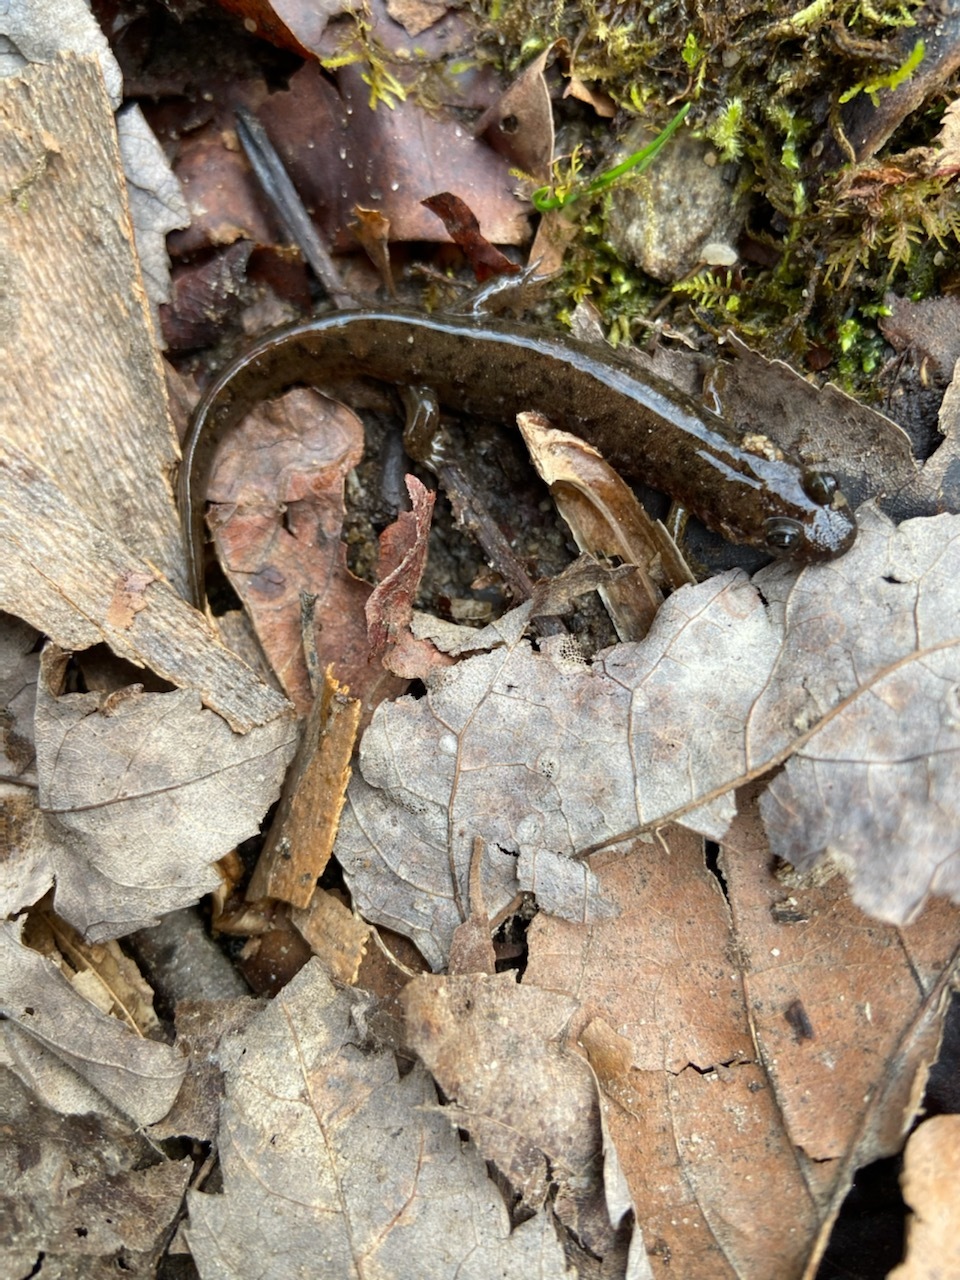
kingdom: Animalia
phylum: Chordata
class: Amphibia
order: Caudata
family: Plethodontidae
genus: Desmognathus
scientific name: Desmognathus monticola
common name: Seal salamander
